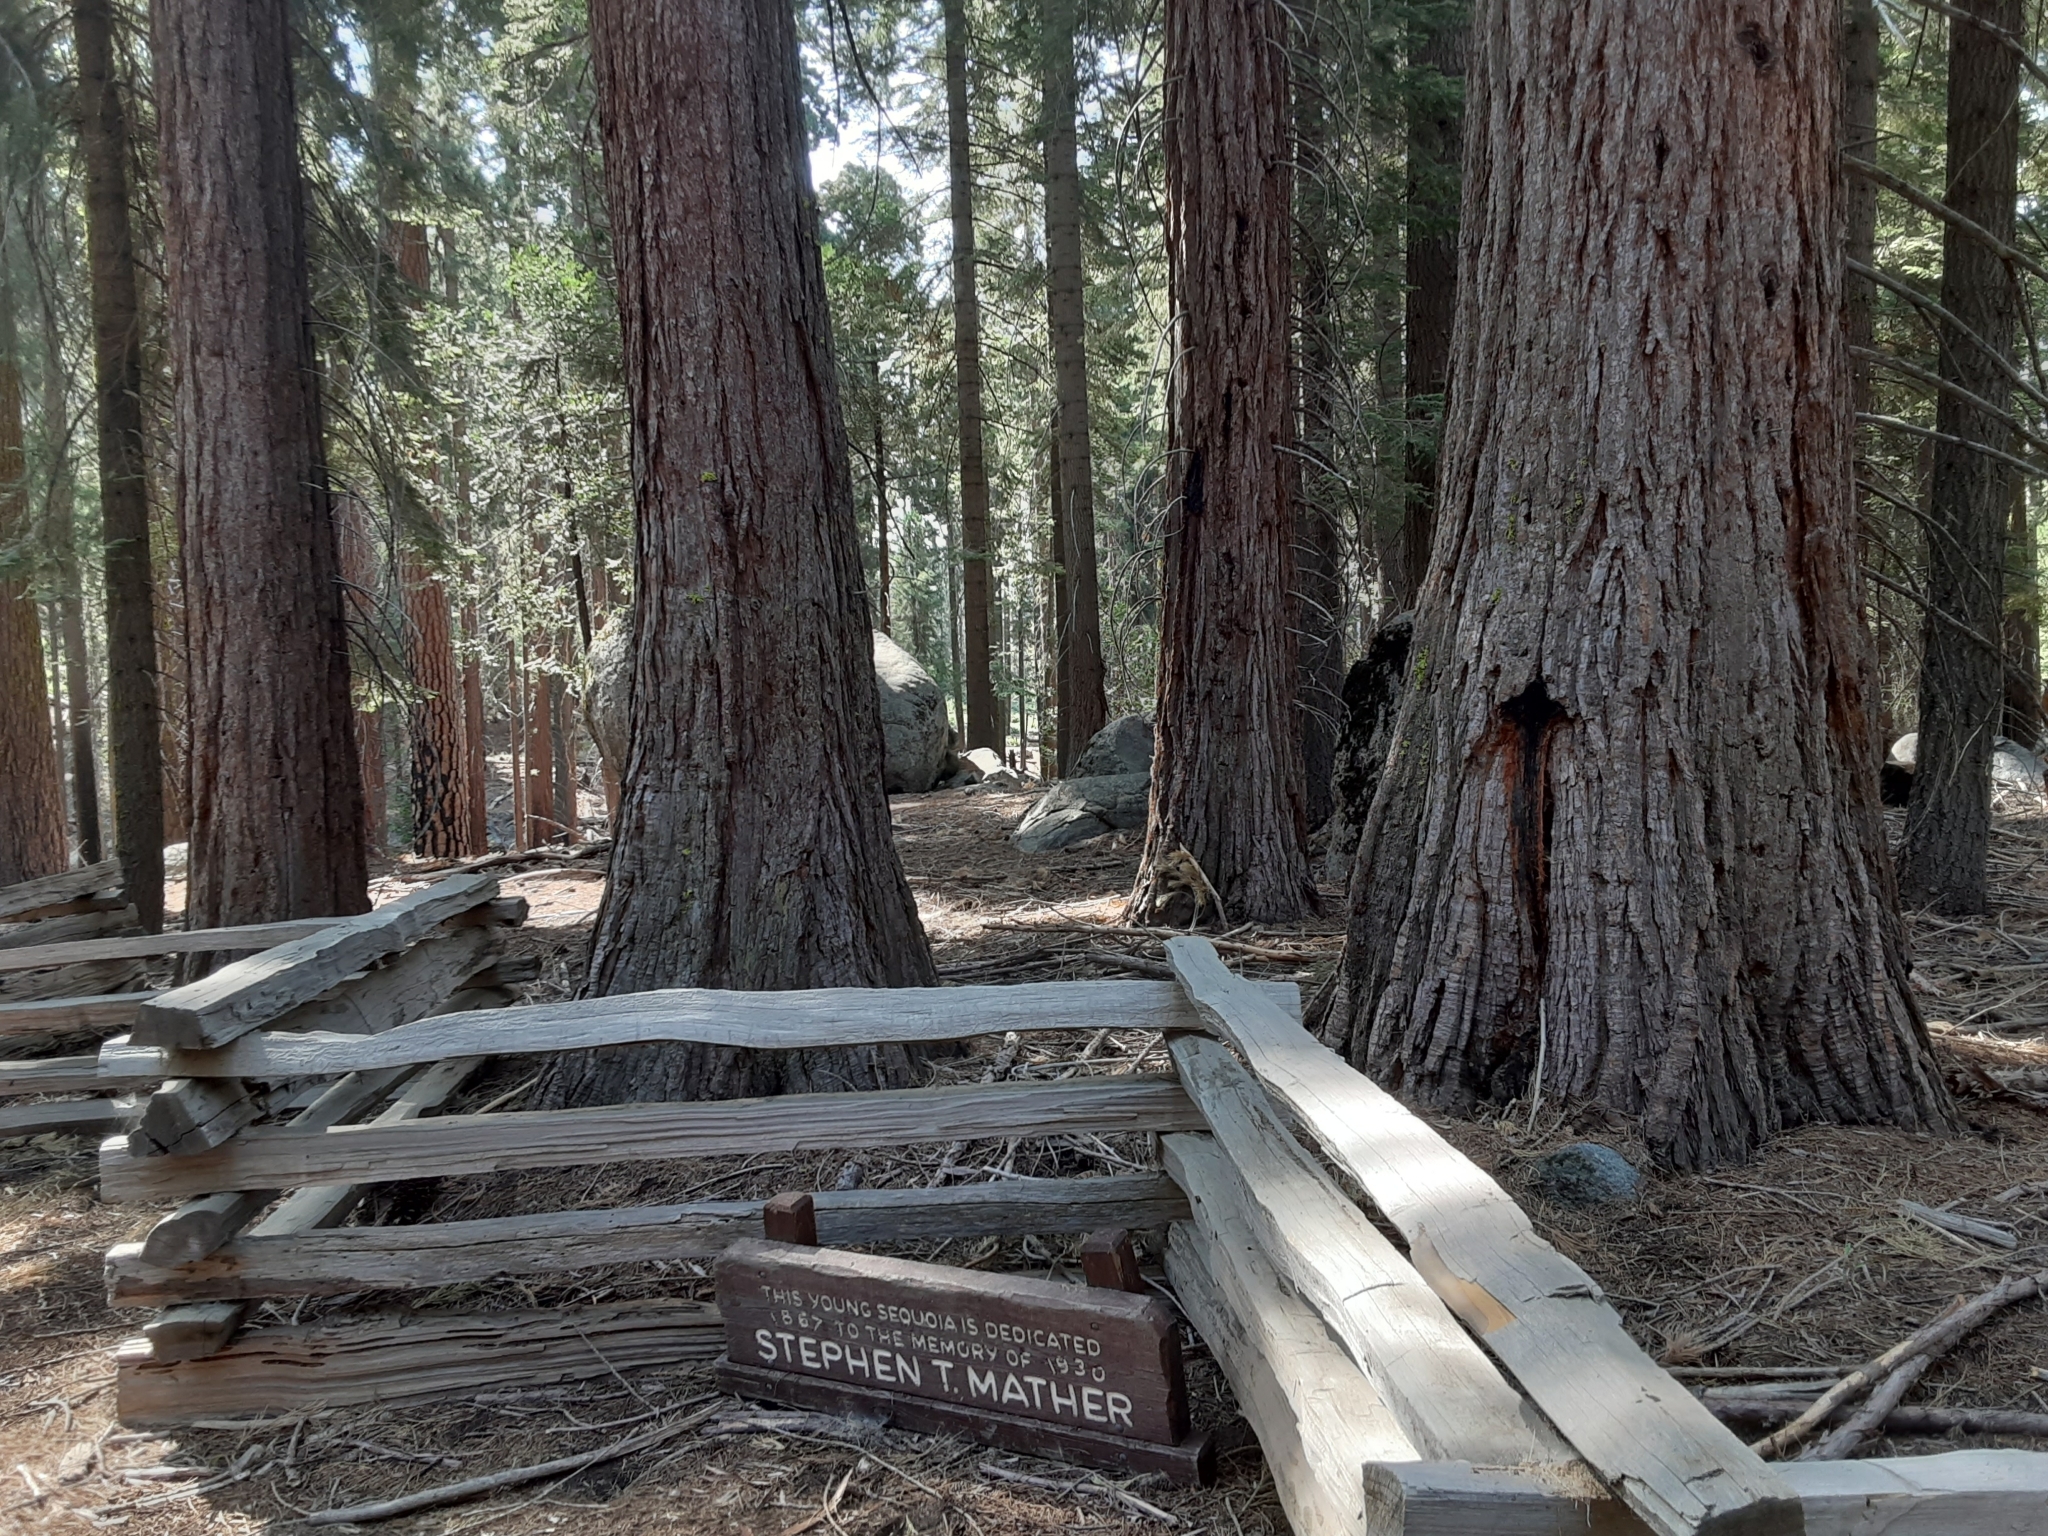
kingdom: Plantae
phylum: Tracheophyta
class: Pinopsida
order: Pinales
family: Cupressaceae
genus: Sequoiadendron
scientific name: Sequoiadendron giganteum
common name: Wellingtonia
